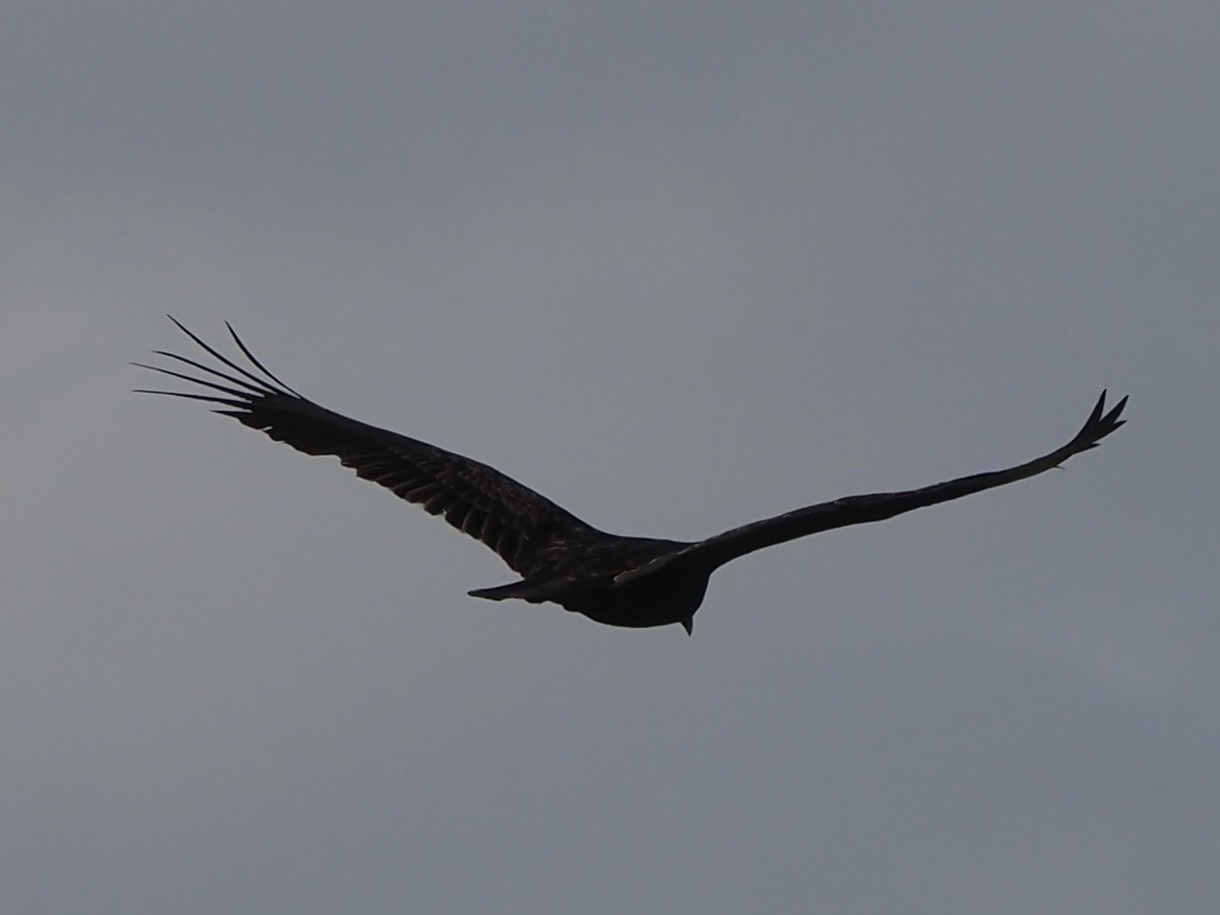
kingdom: Animalia
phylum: Chordata
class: Aves
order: Accipitriformes
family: Cathartidae
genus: Cathartes
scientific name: Cathartes aura
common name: Turkey vulture
